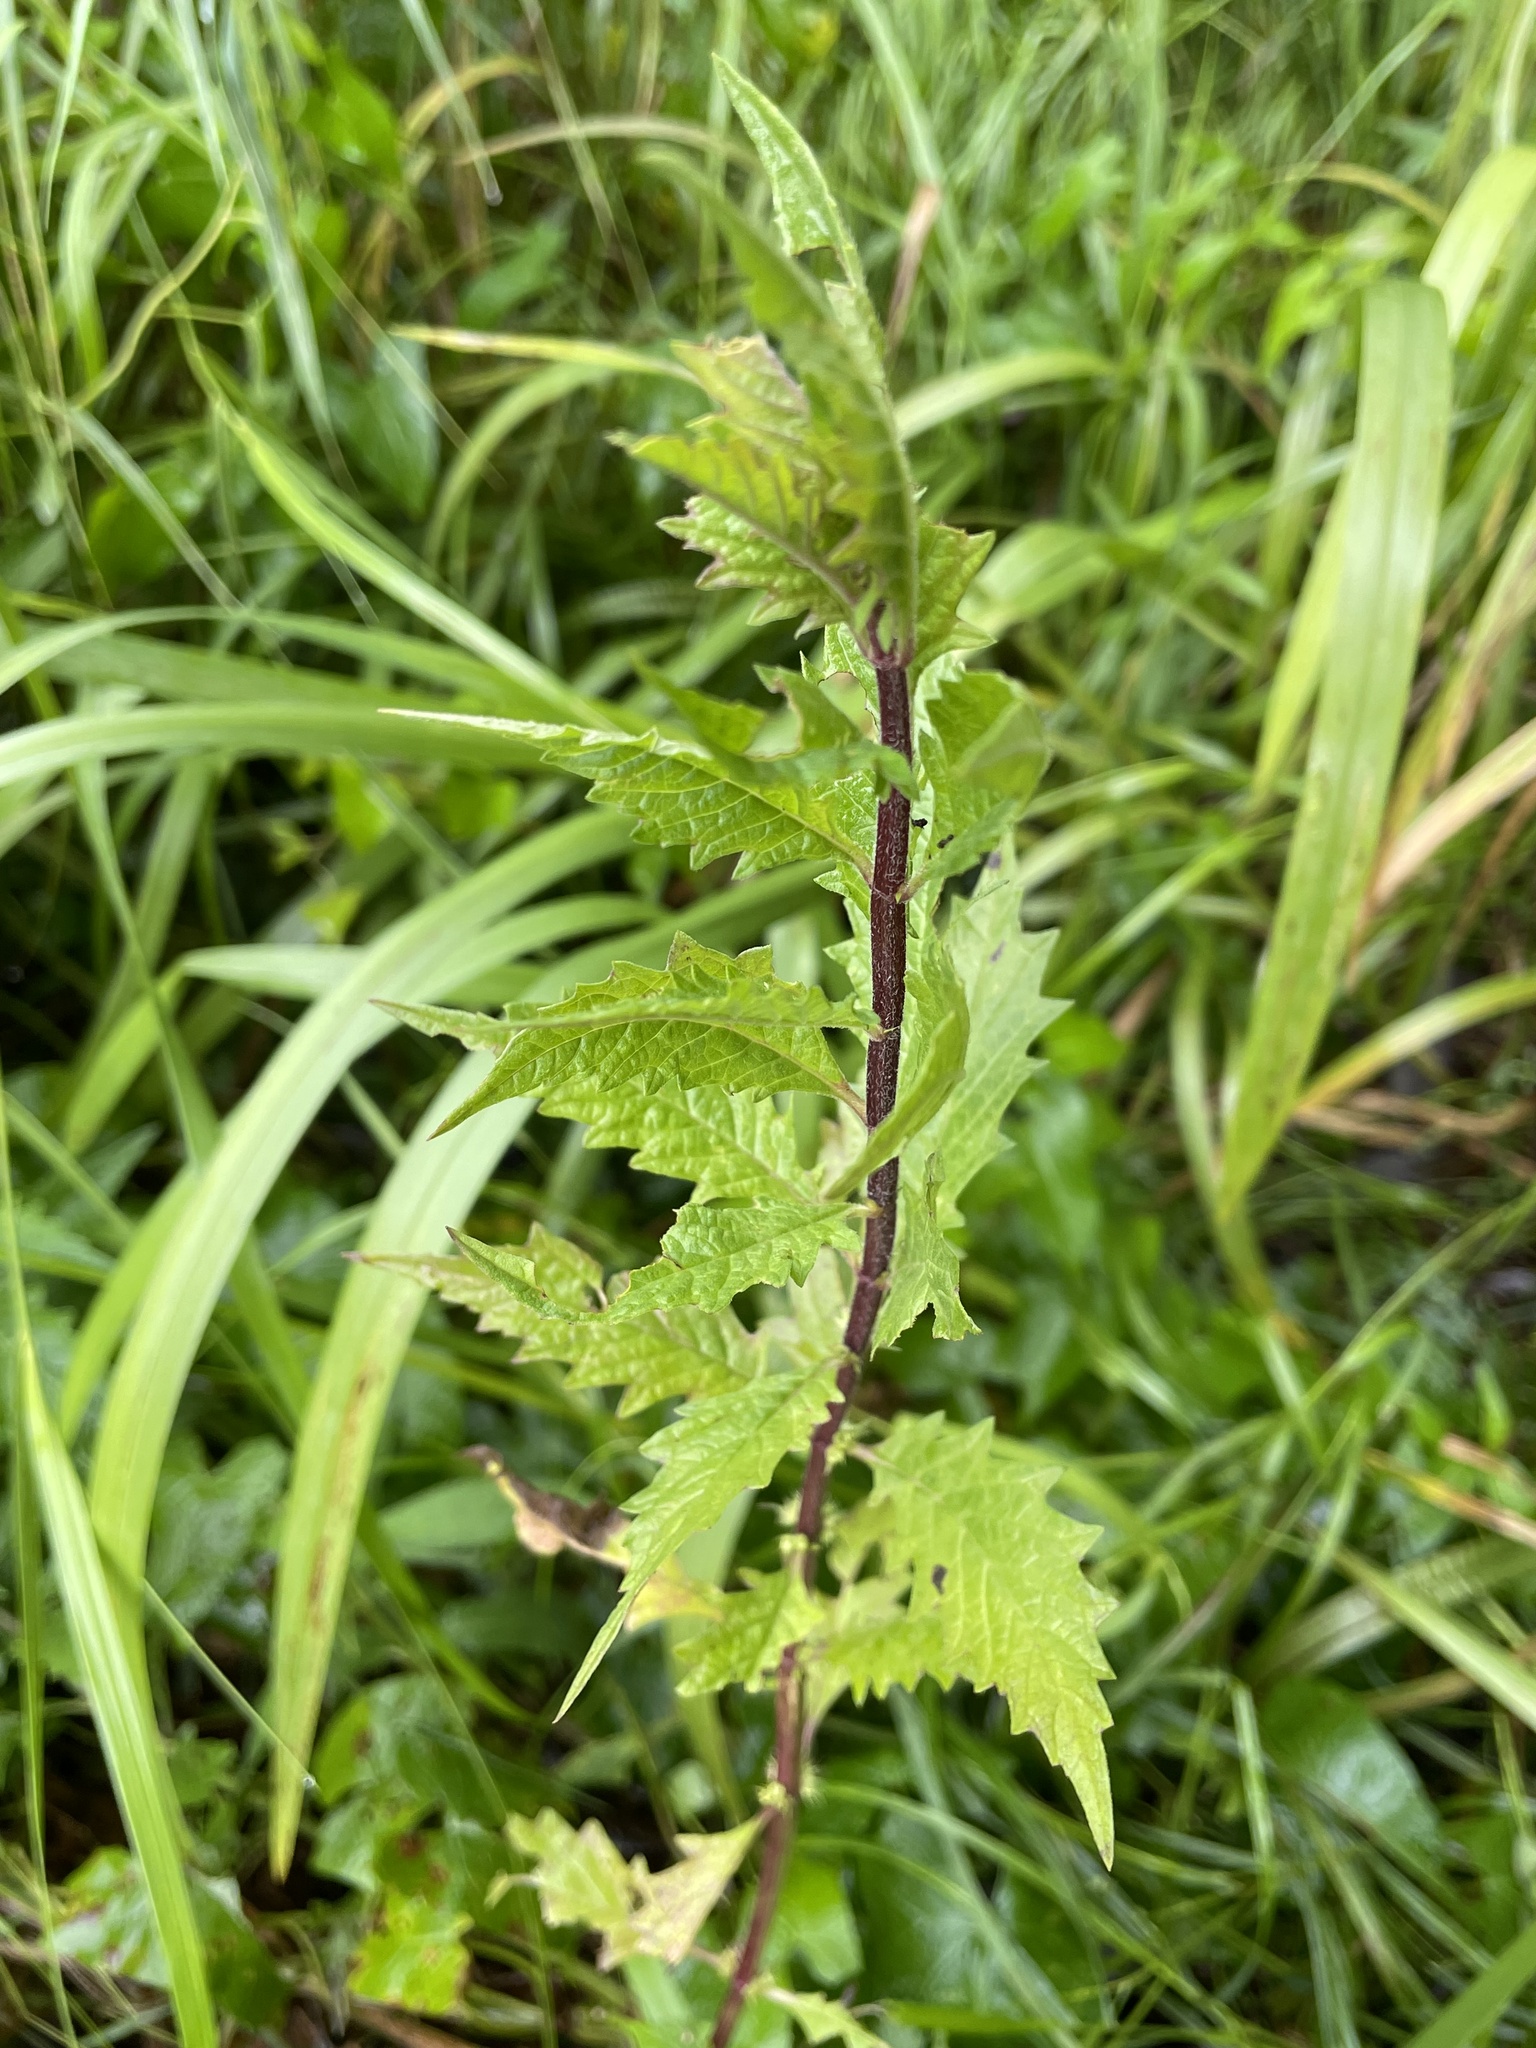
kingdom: Plantae
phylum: Tracheophyta
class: Magnoliopsida
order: Lamiales
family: Lamiaceae
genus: Lycopus
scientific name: Lycopus europaeus
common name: European bugleweed
